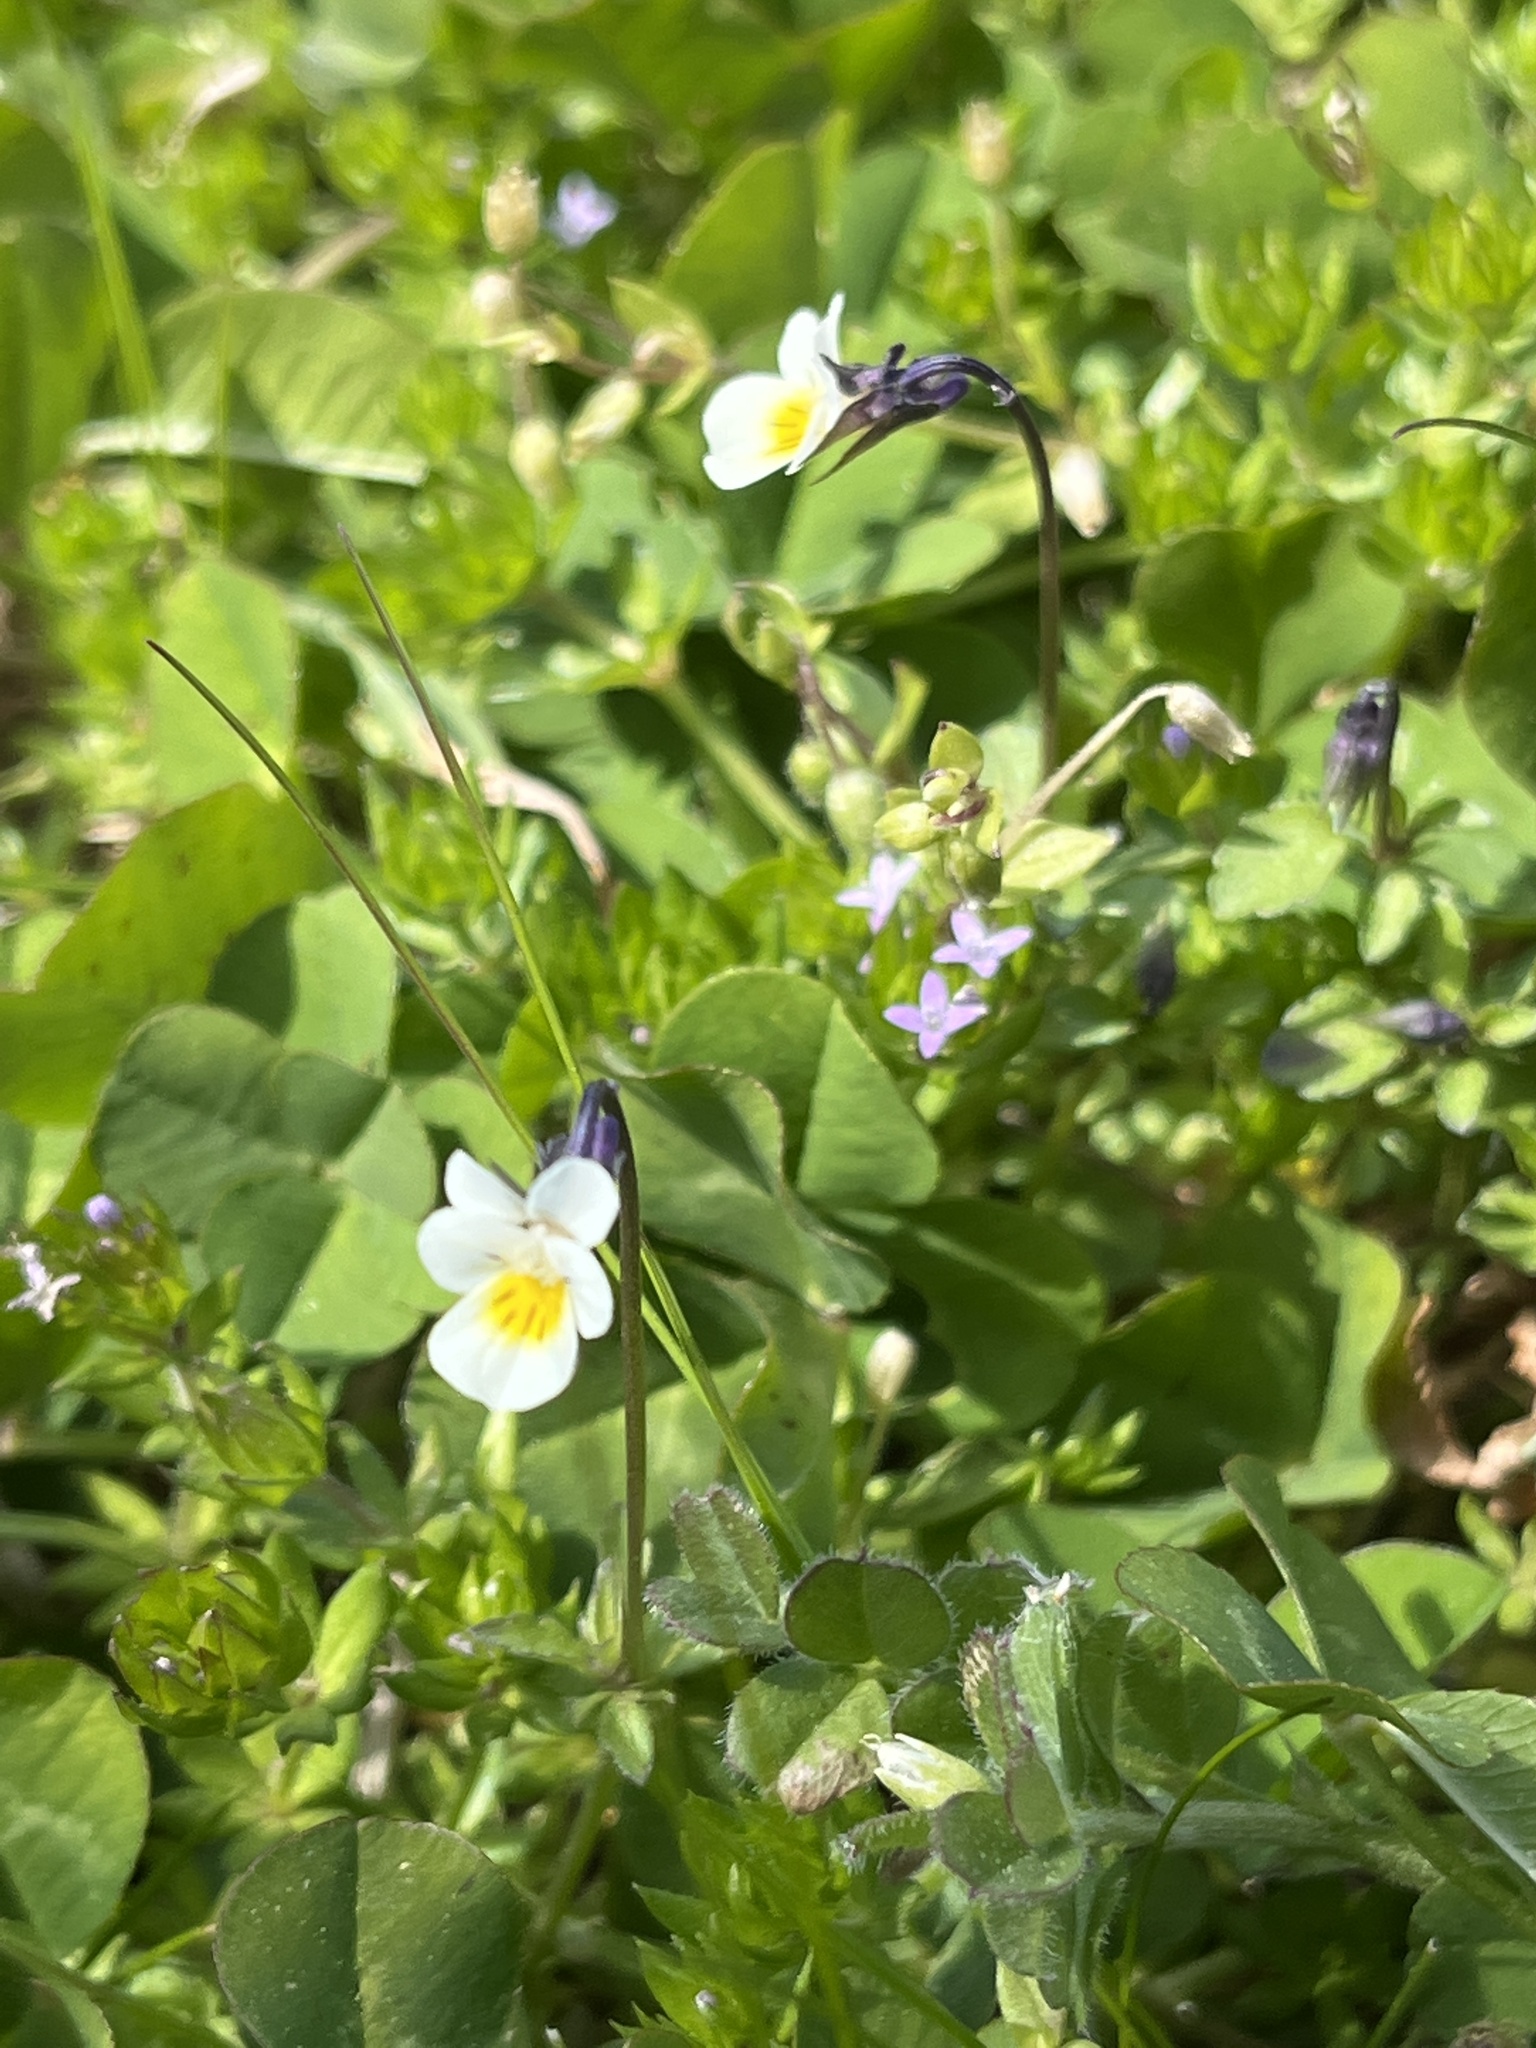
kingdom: Plantae
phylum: Tracheophyta
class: Magnoliopsida
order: Malpighiales
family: Violaceae
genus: Viola
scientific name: Viola arvensis
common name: Field pansy
